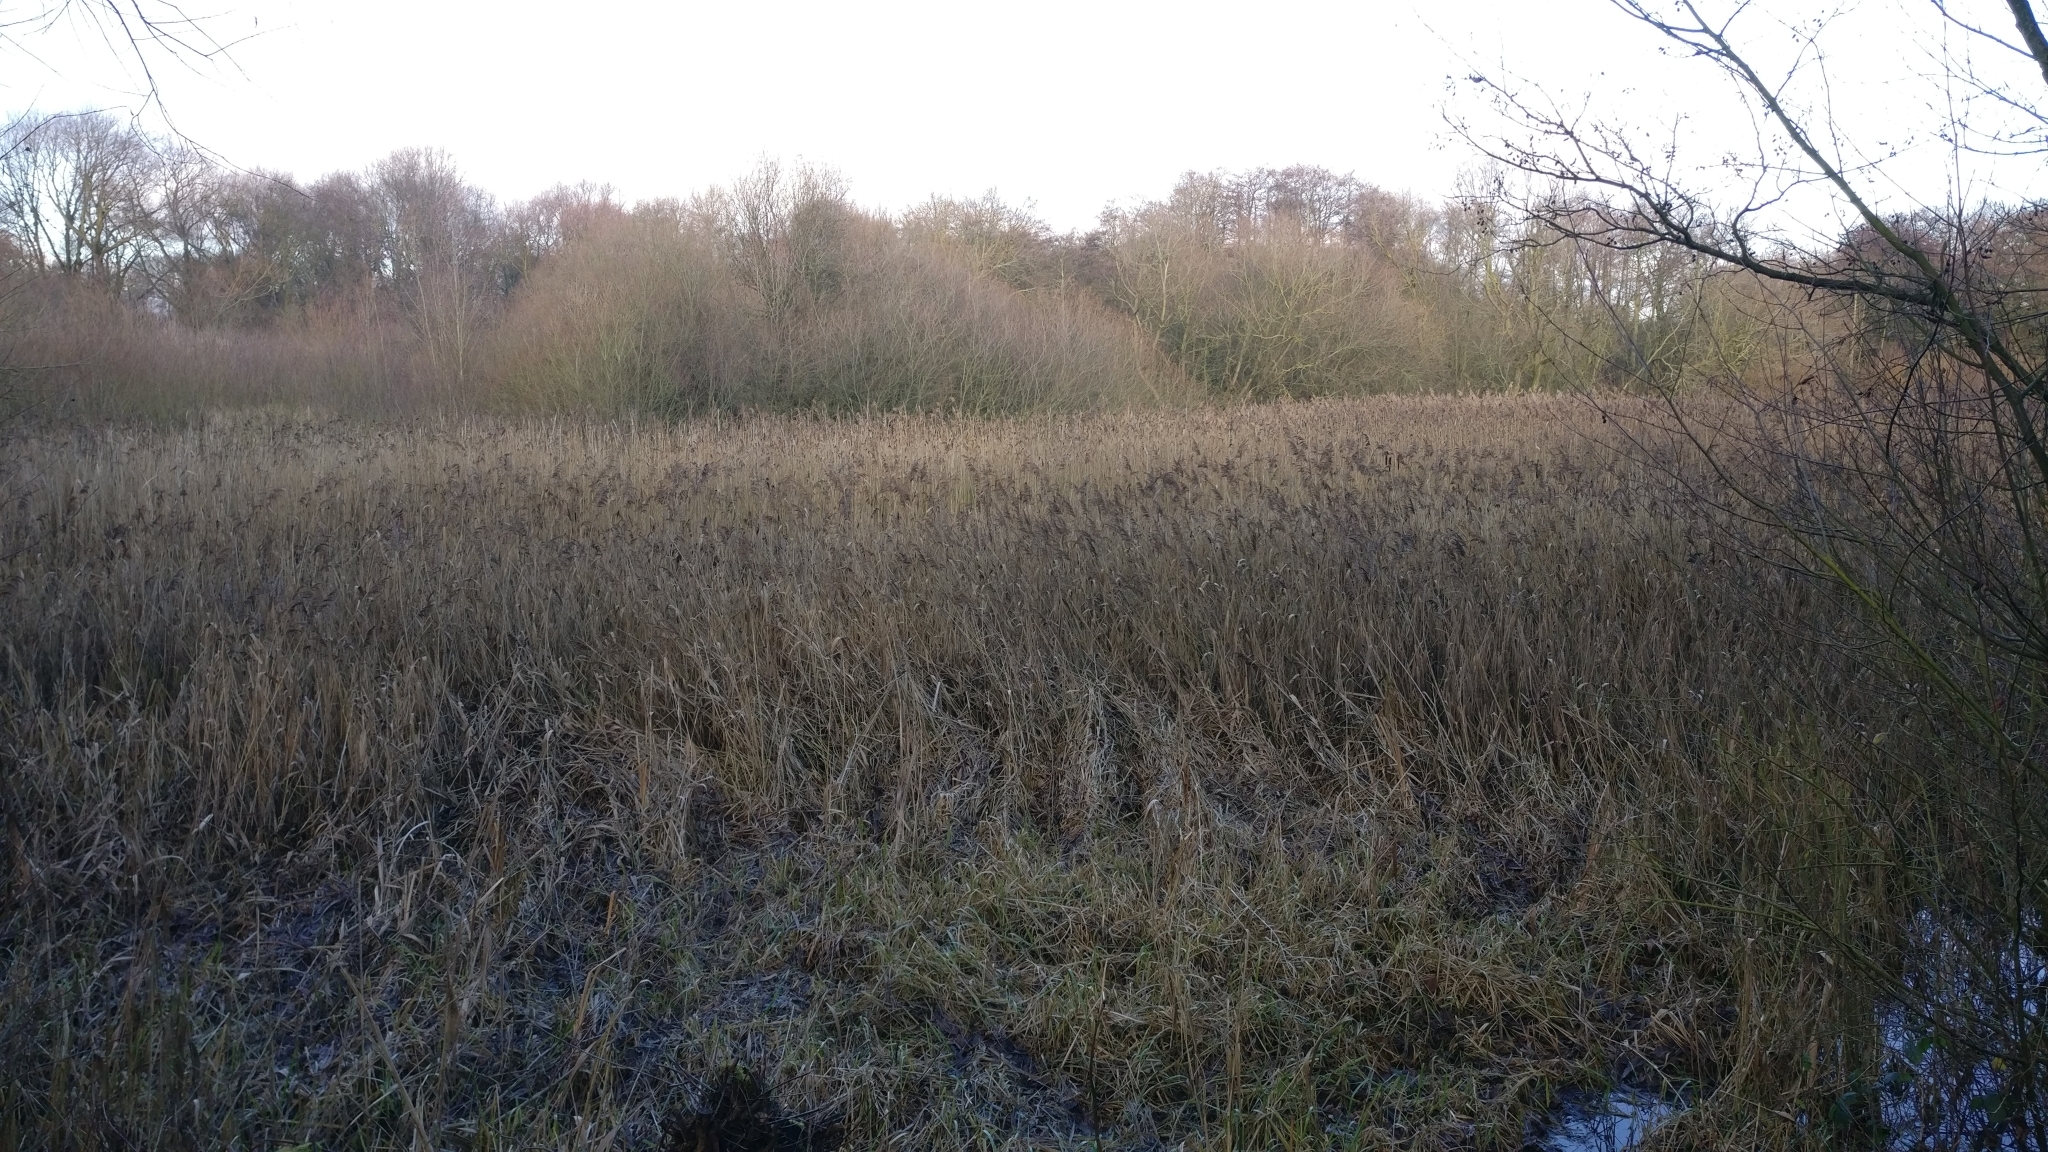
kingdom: Plantae
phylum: Tracheophyta
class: Liliopsida
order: Poales
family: Poaceae
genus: Phragmites
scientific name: Phragmites australis
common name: Common reed
